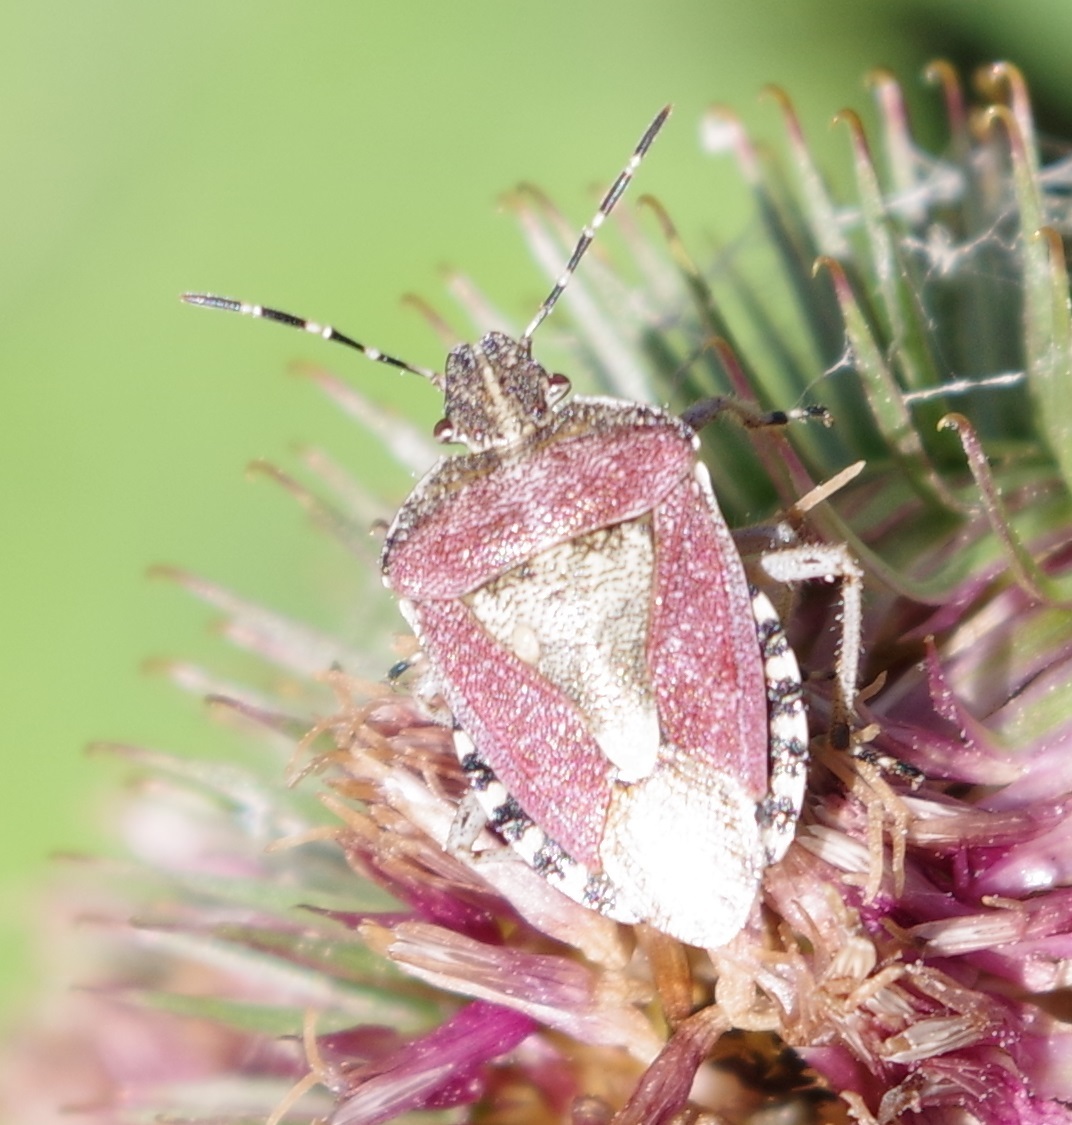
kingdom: Animalia
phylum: Arthropoda
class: Insecta
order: Hemiptera
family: Pentatomidae
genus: Dolycoris
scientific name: Dolycoris baccarum
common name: Sloe bug
